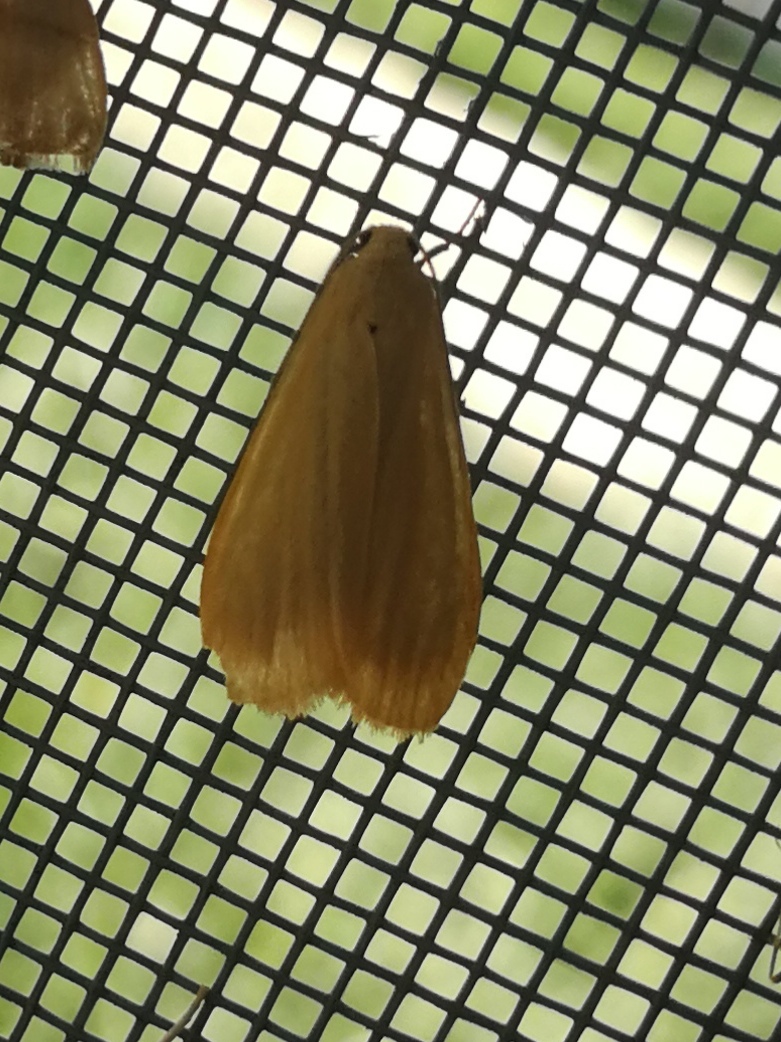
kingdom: Animalia
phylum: Arthropoda
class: Insecta
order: Lepidoptera
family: Erebidae
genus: Wittia
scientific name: Wittia sororcula
